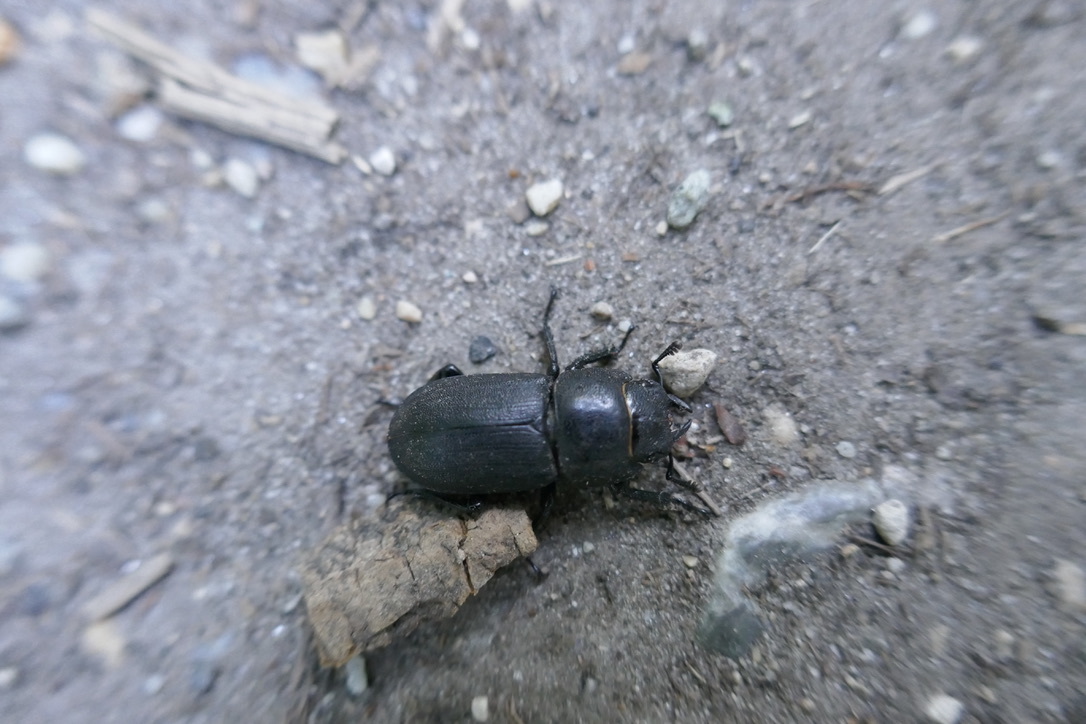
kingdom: Animalia
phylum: Arthropoda
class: Insecta
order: Coleoptera
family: Lucanidae
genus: Dorcus
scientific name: Dorcus parallelipipedus
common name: Lesser stag beetle
